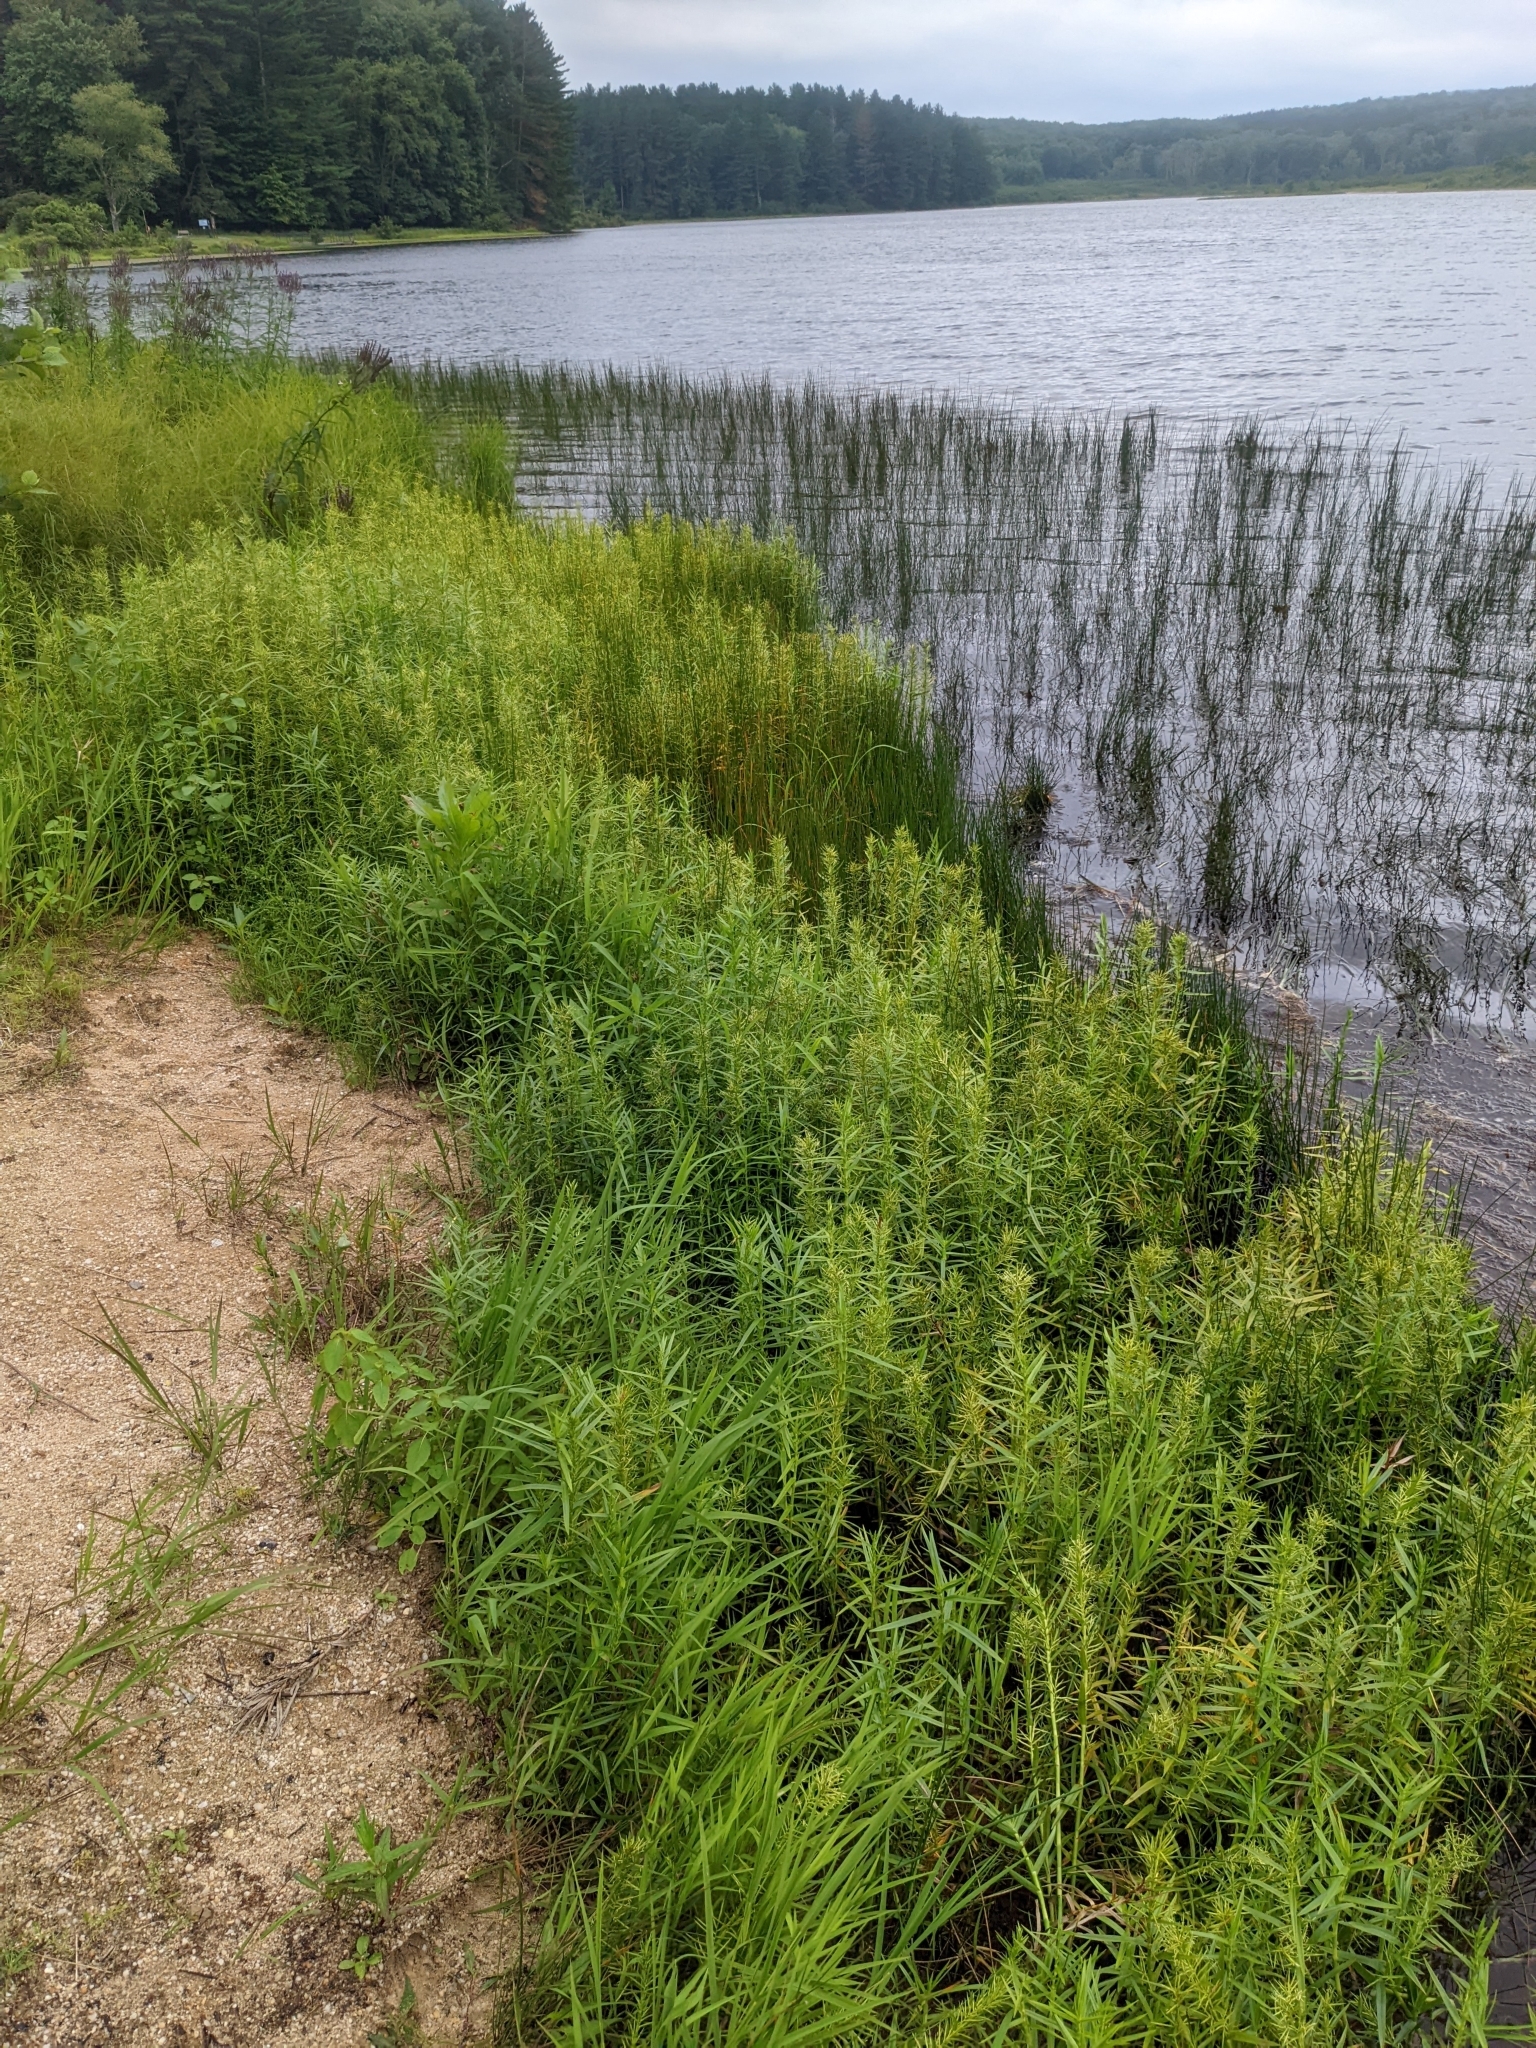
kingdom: Plantae
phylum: Tracheophyta
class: Liliopsida
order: Poales
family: Cyperaceae
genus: Dulichium
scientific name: Dulichium arundinaceum
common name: Three-way sedge
